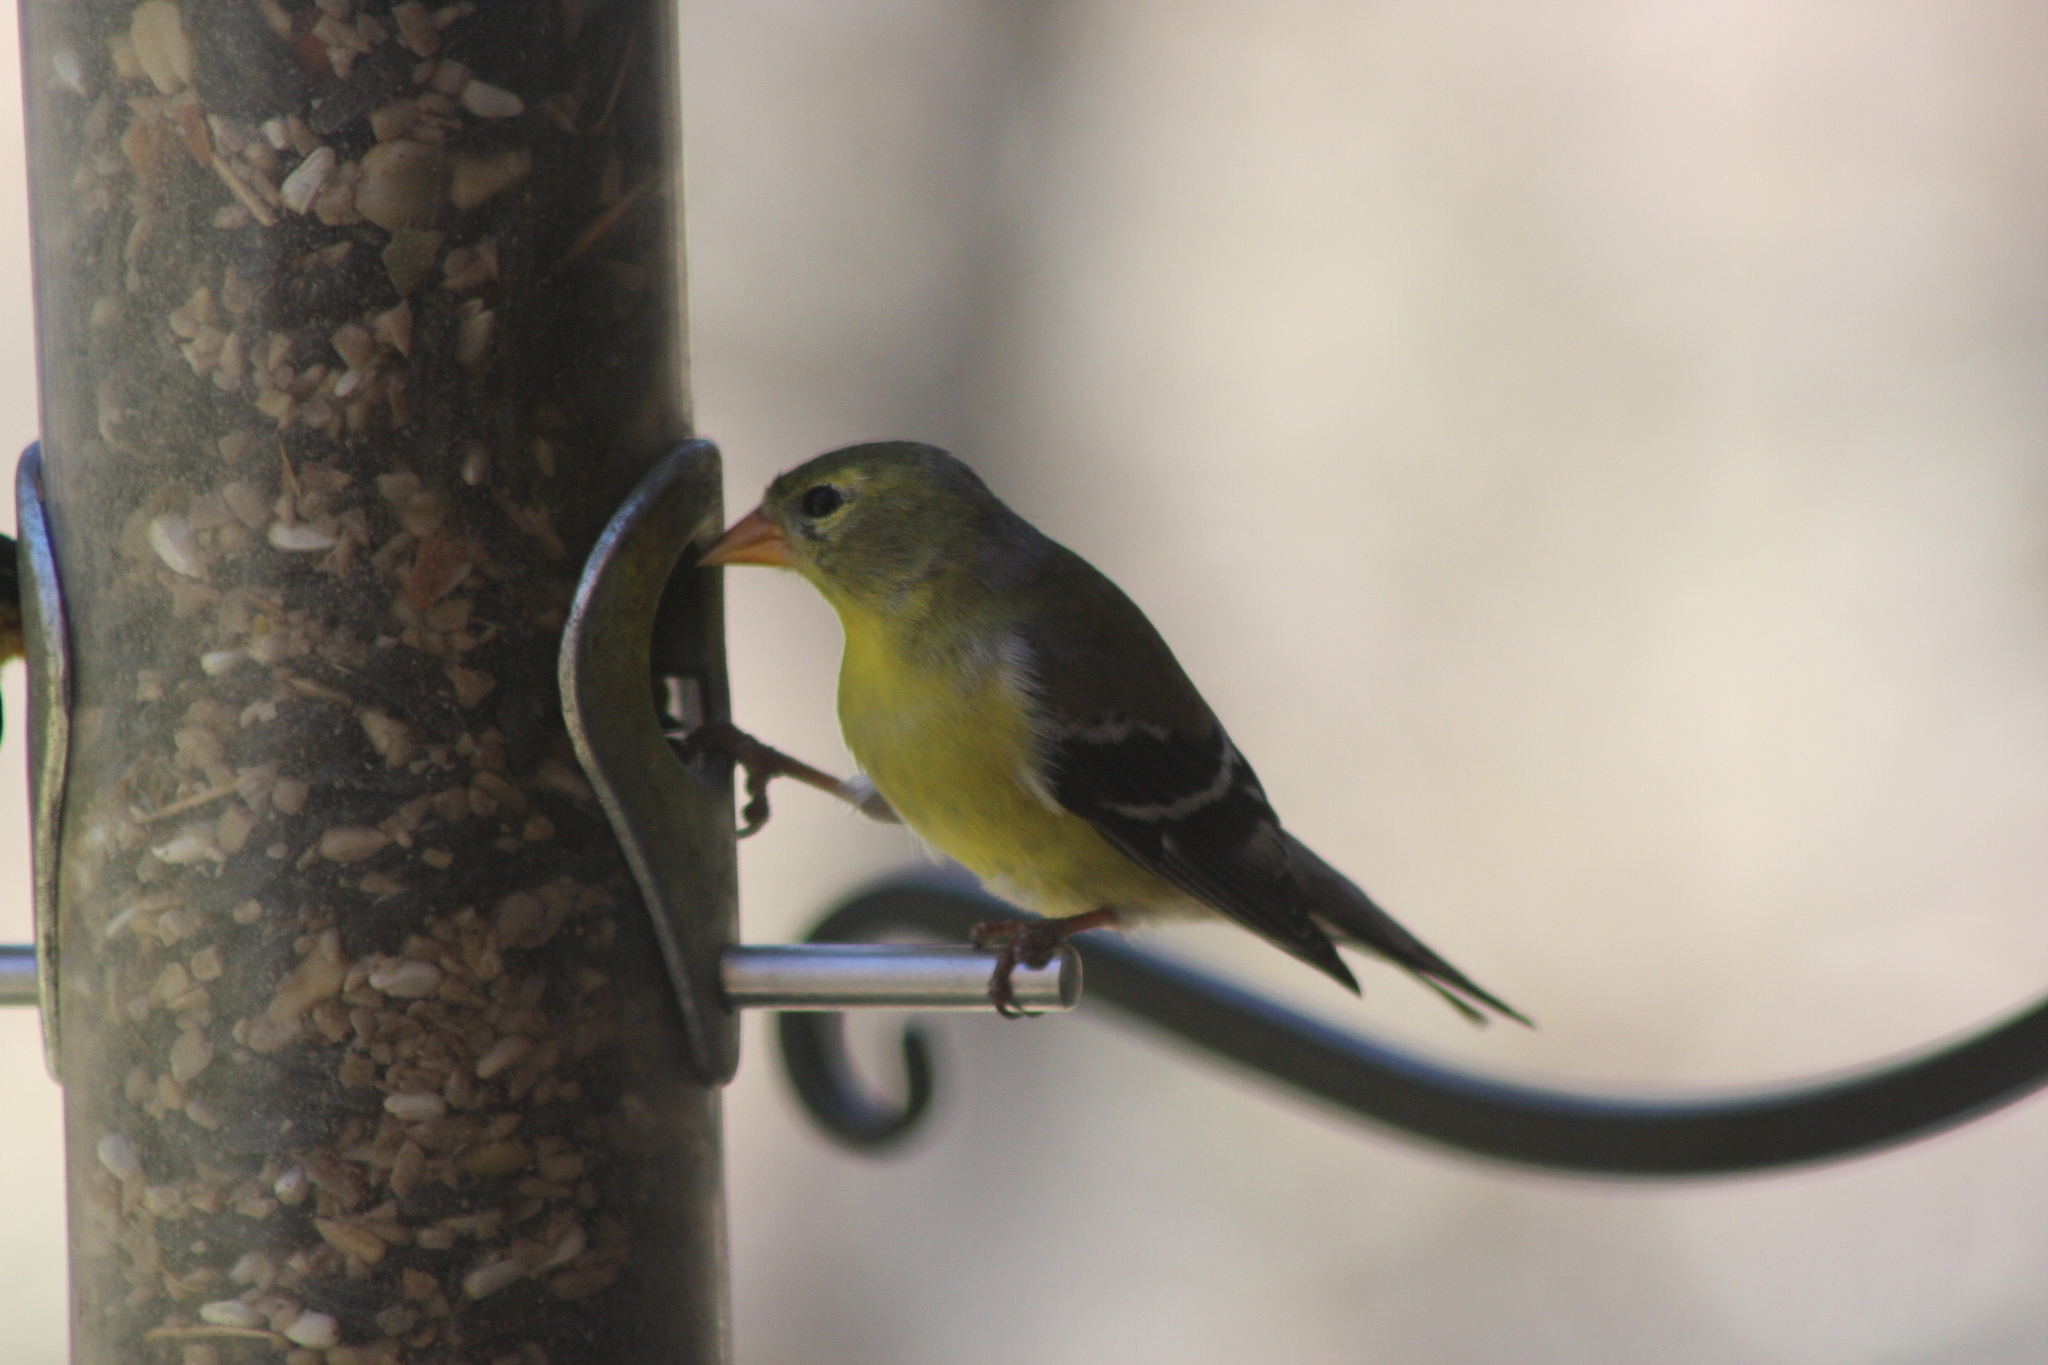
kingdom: Animalia
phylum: Chordata
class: Aves
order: Passeriformes
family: Fringillidae
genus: Spinus
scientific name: Spinus tristis
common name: American goldfinch
